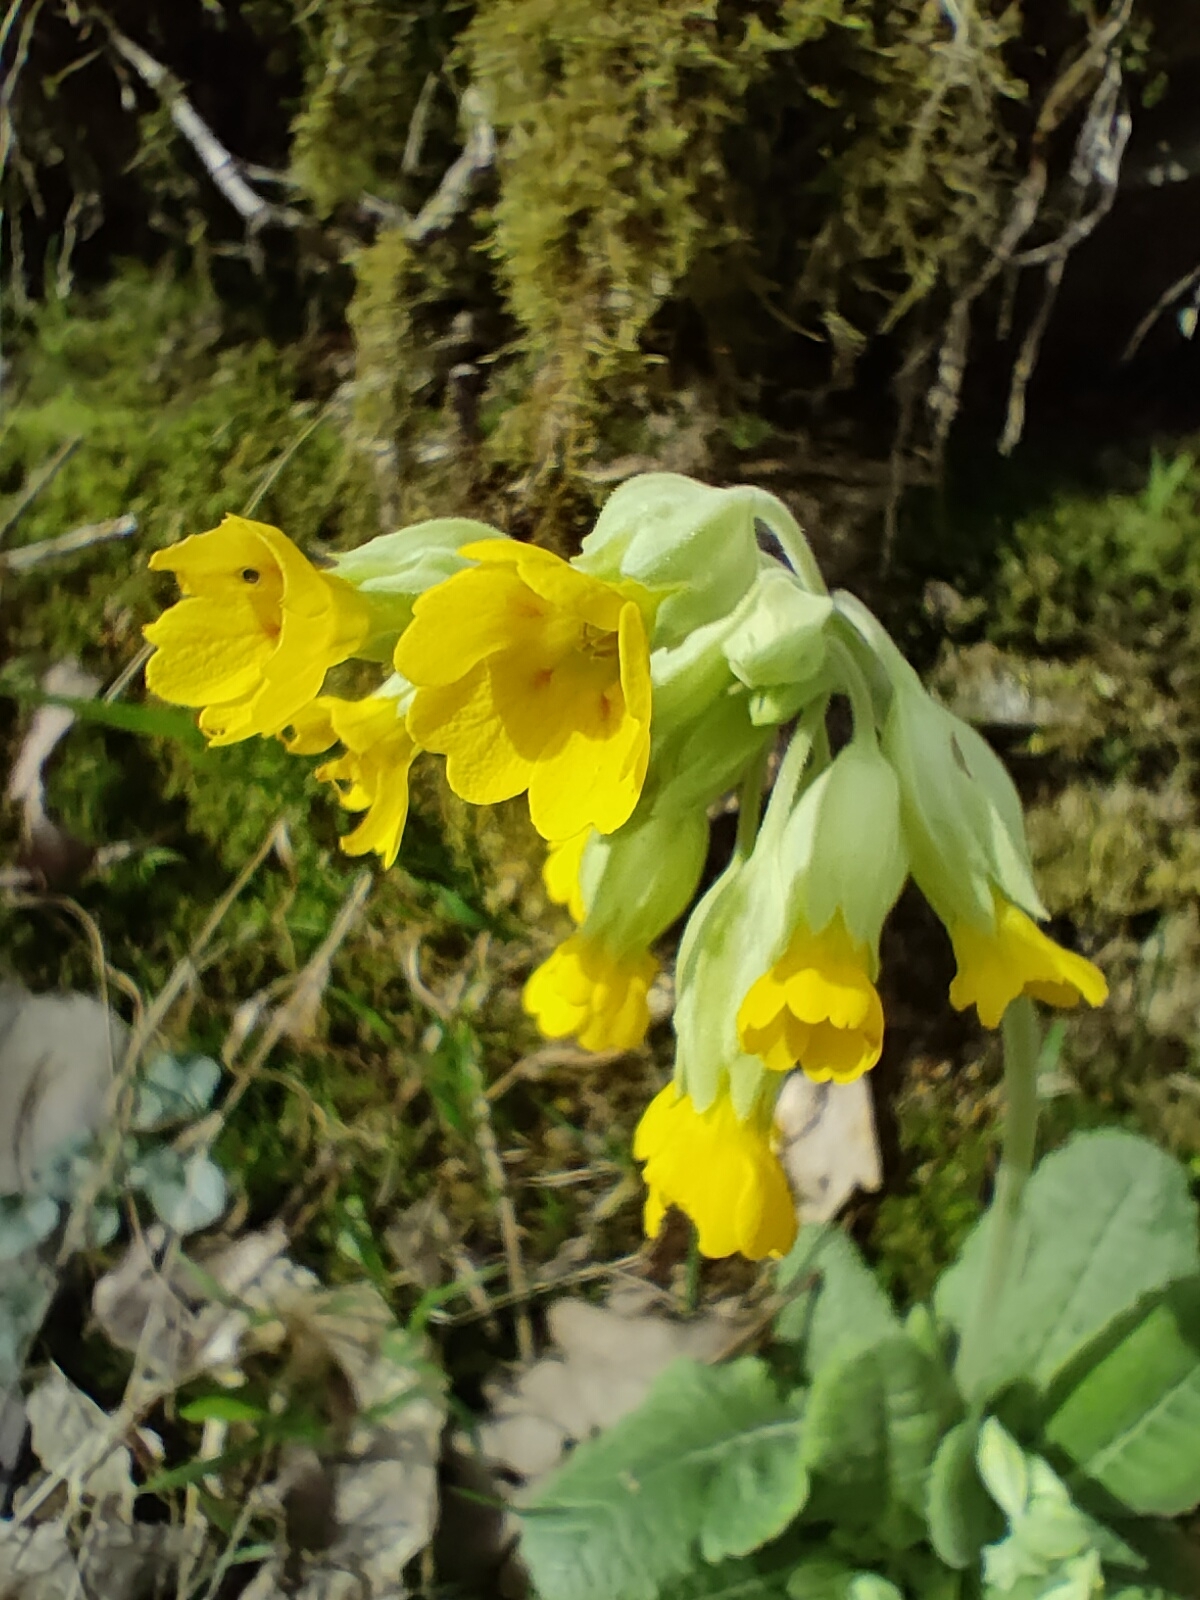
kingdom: Plantae
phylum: Tracheophyta
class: Magnoliopsida
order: Ericales
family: Primulaceae
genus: Primula
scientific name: Primula veris
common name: Cowslip
